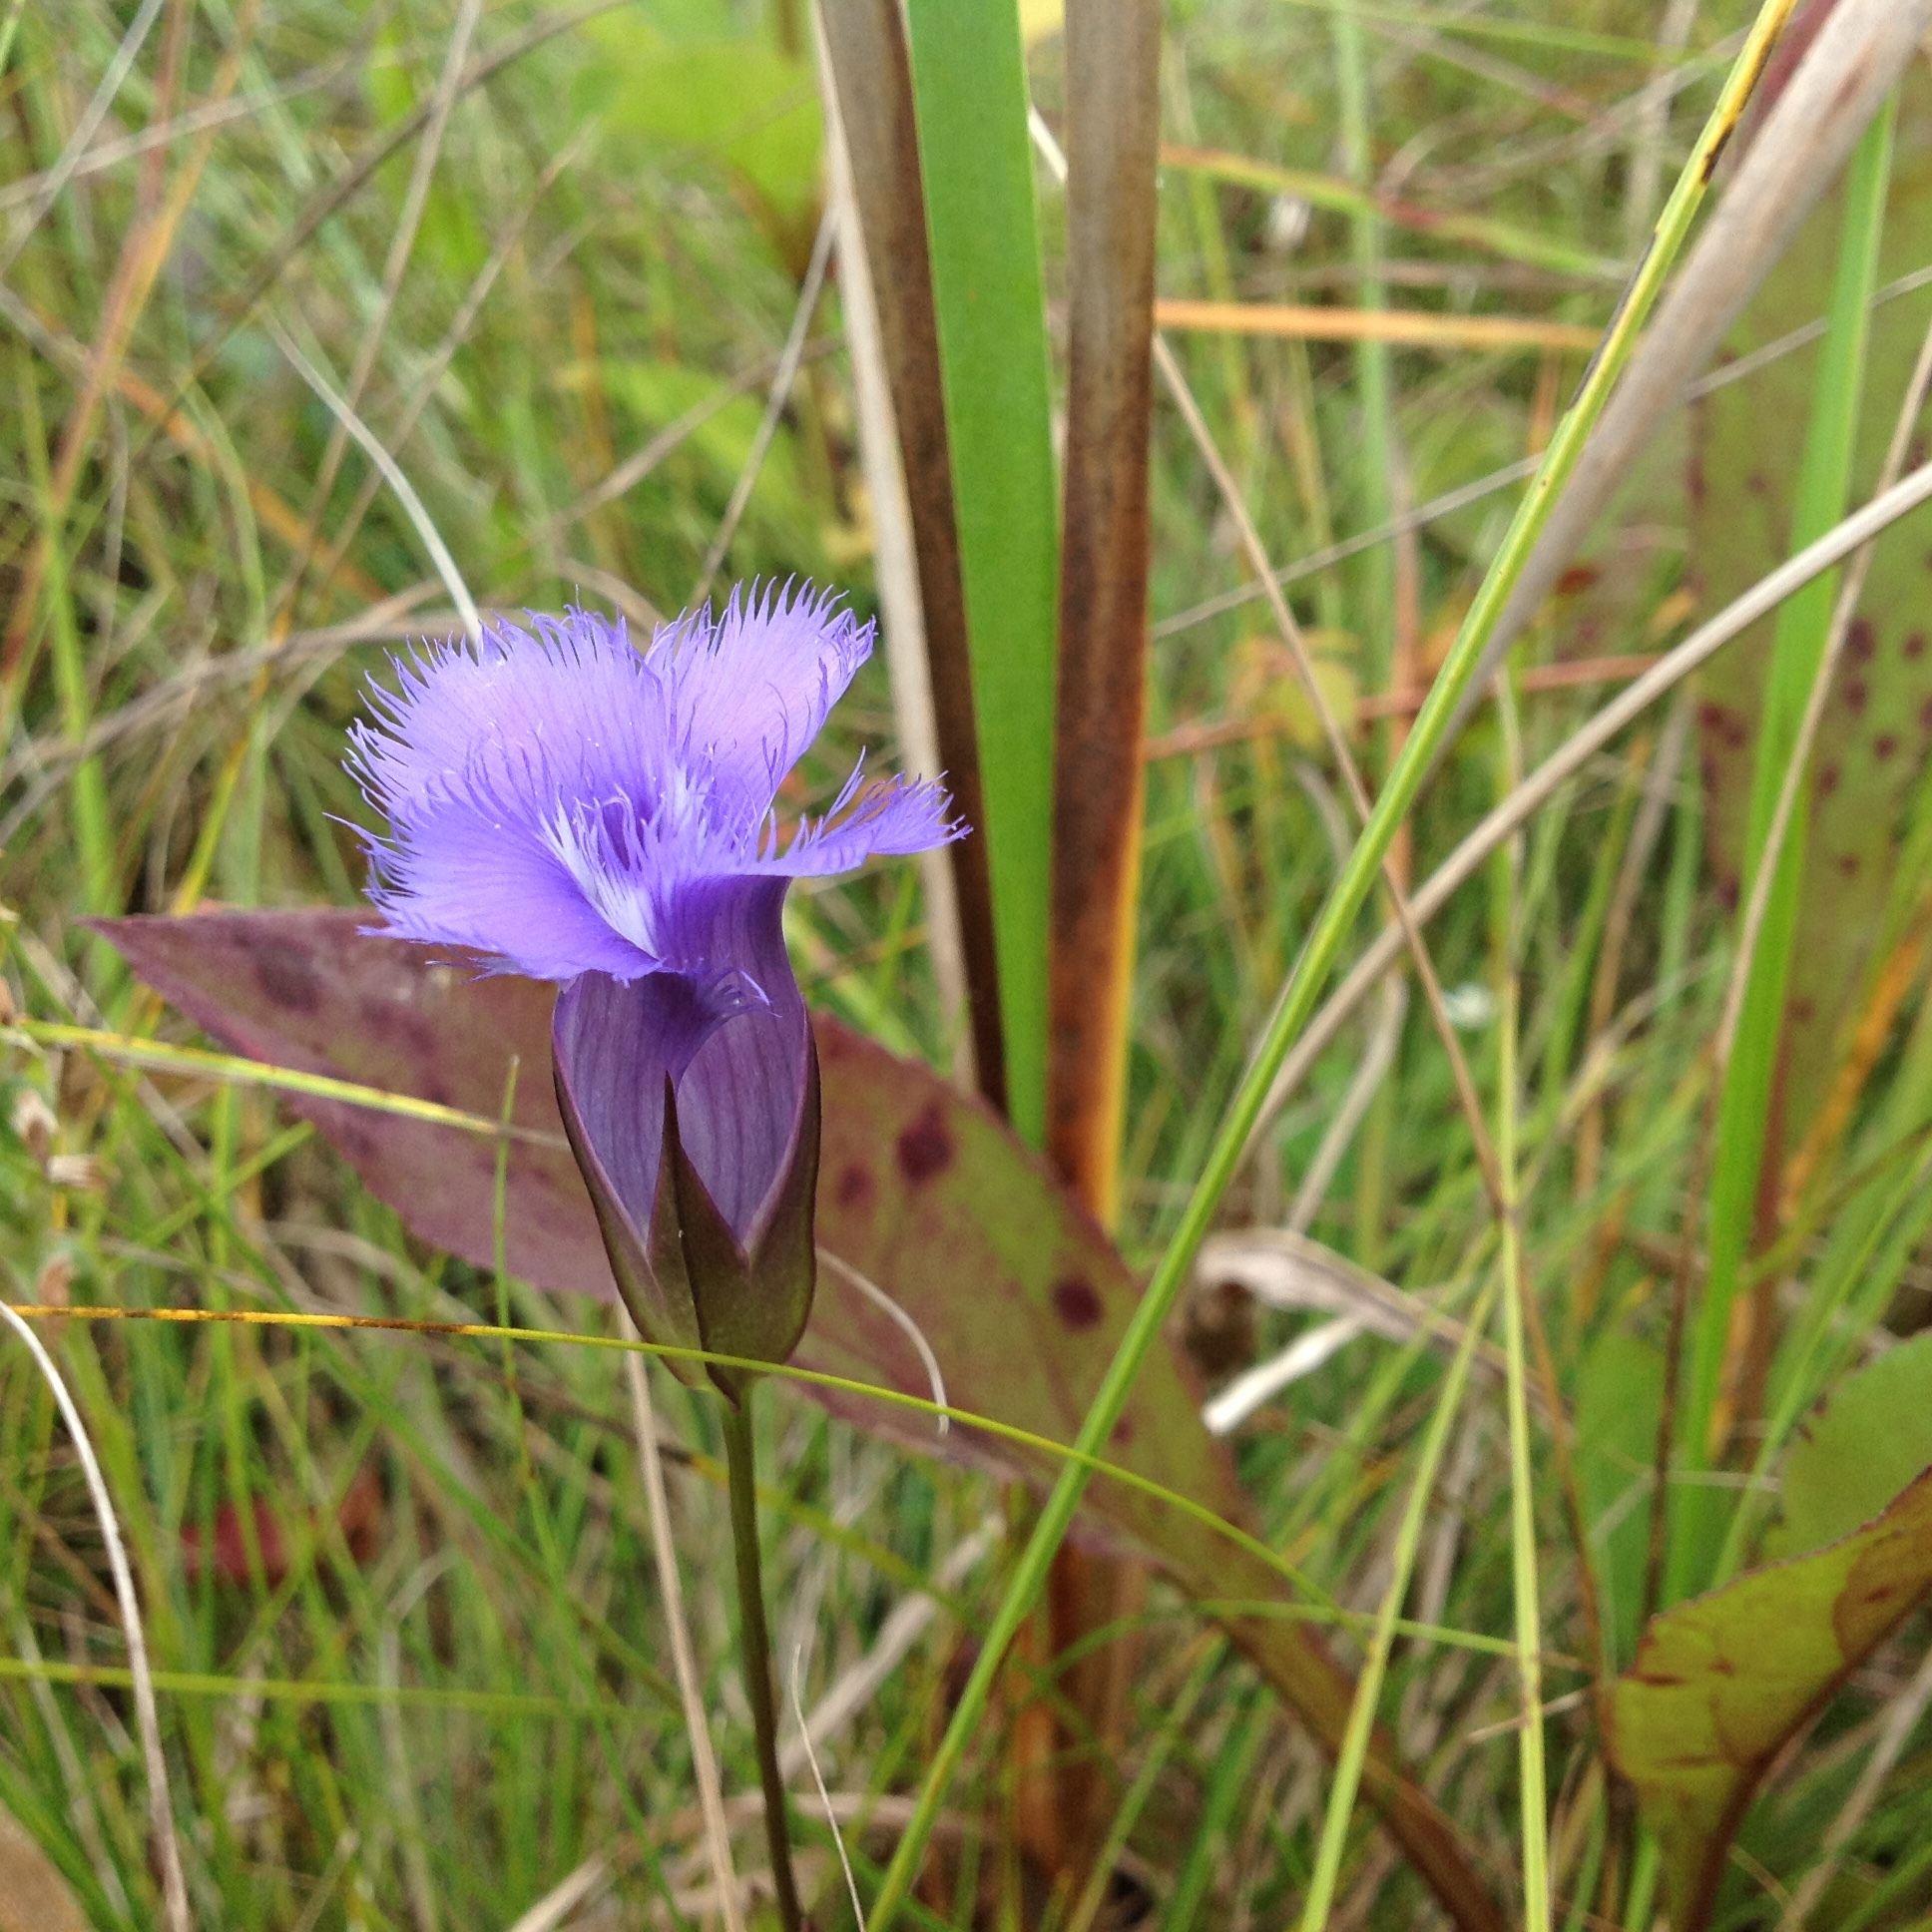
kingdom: Plantae
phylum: Tracheophyta
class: Magnoliopsida
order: Gentianales
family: Gentianaceae
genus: Gentianopsis
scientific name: Gentianopsis crinita
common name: Fringed-gentian
